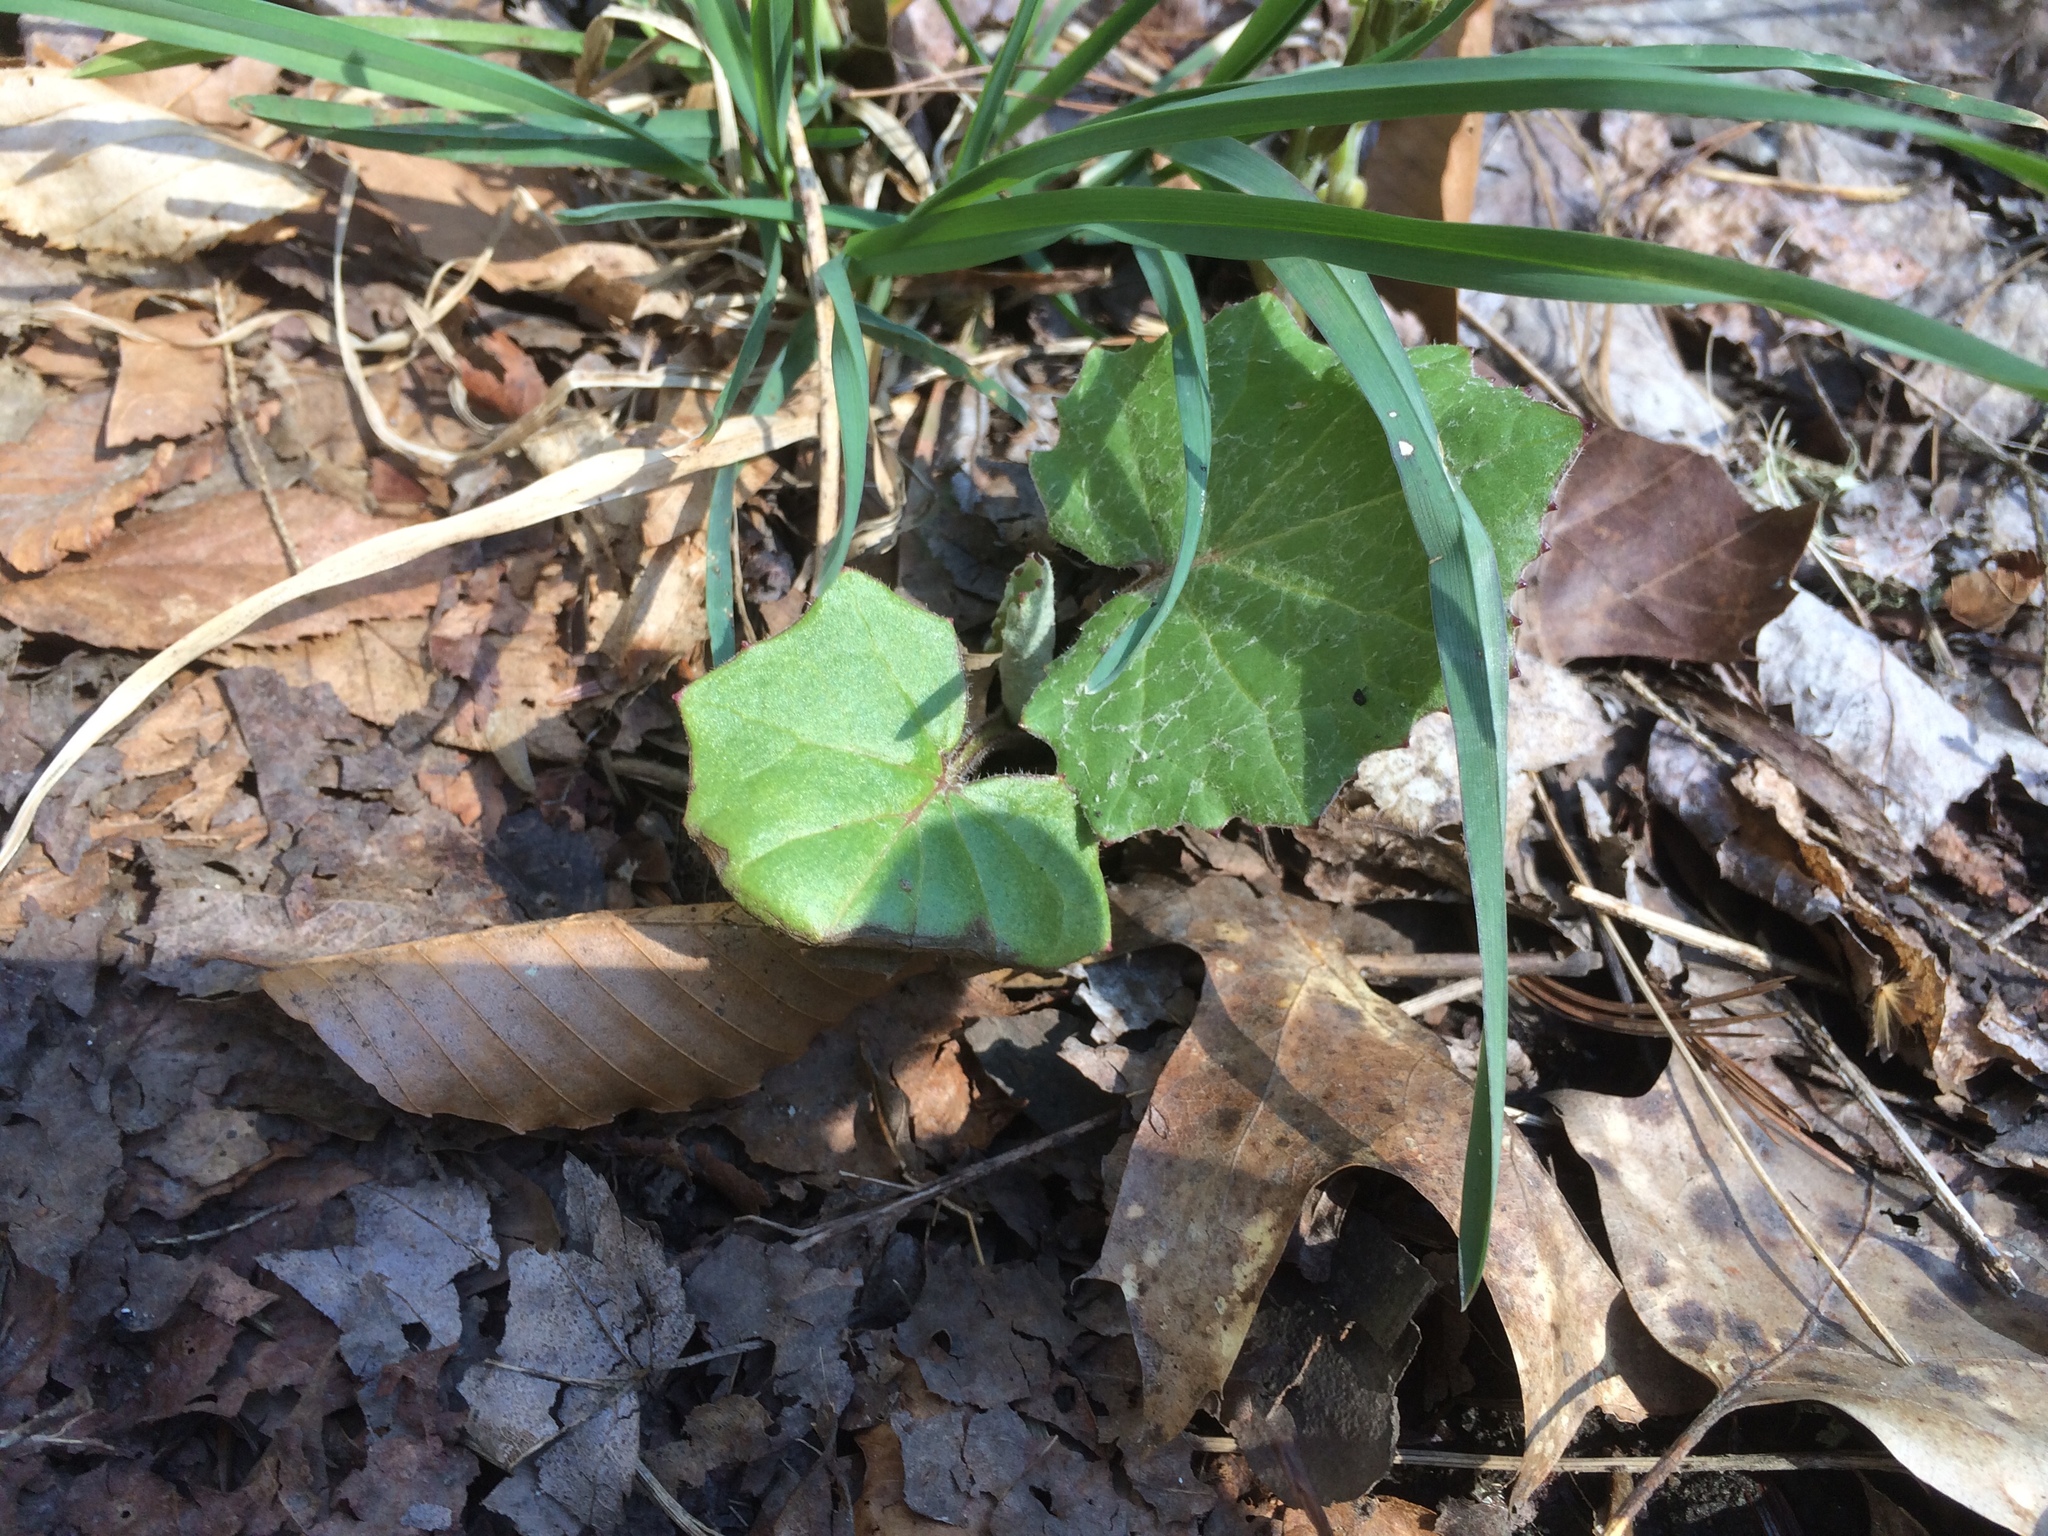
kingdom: Plantae
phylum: Tracheophyta
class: Magnoliopsida
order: Asterales
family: Asteraceae
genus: Tussilago
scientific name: Tussilago farfara
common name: Coltsfoot
